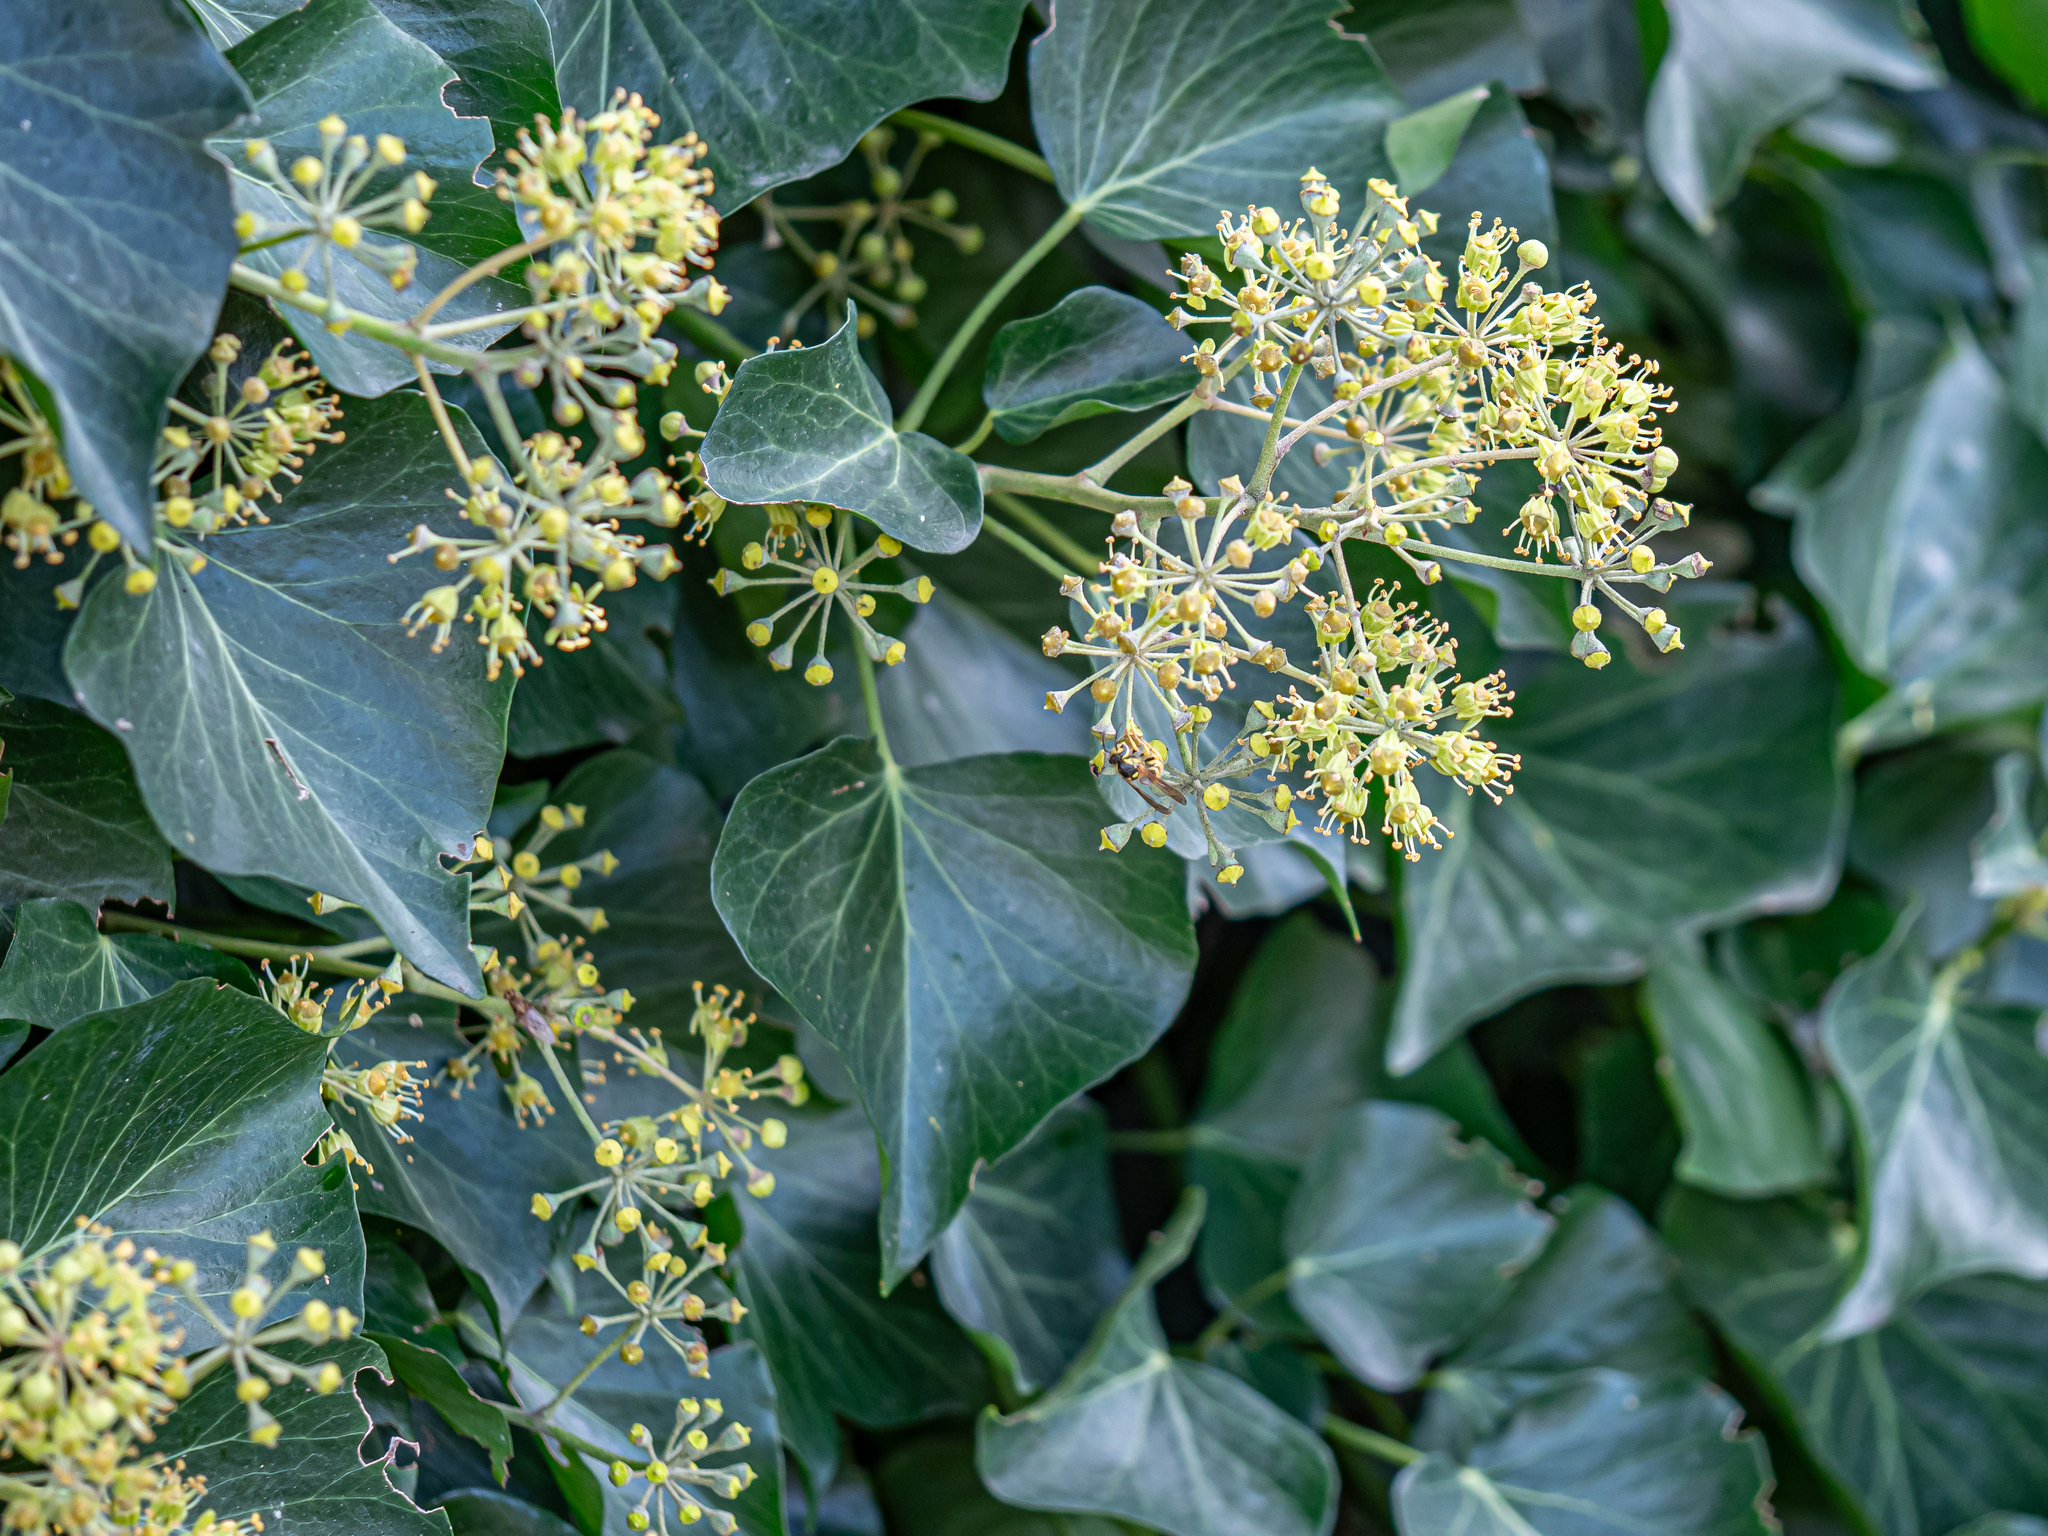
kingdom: Plantae
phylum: Tracheophyta
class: Magnoliopsida
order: Apiales
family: Araliaceae
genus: Hedera
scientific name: Hedera helix
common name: Ivy
